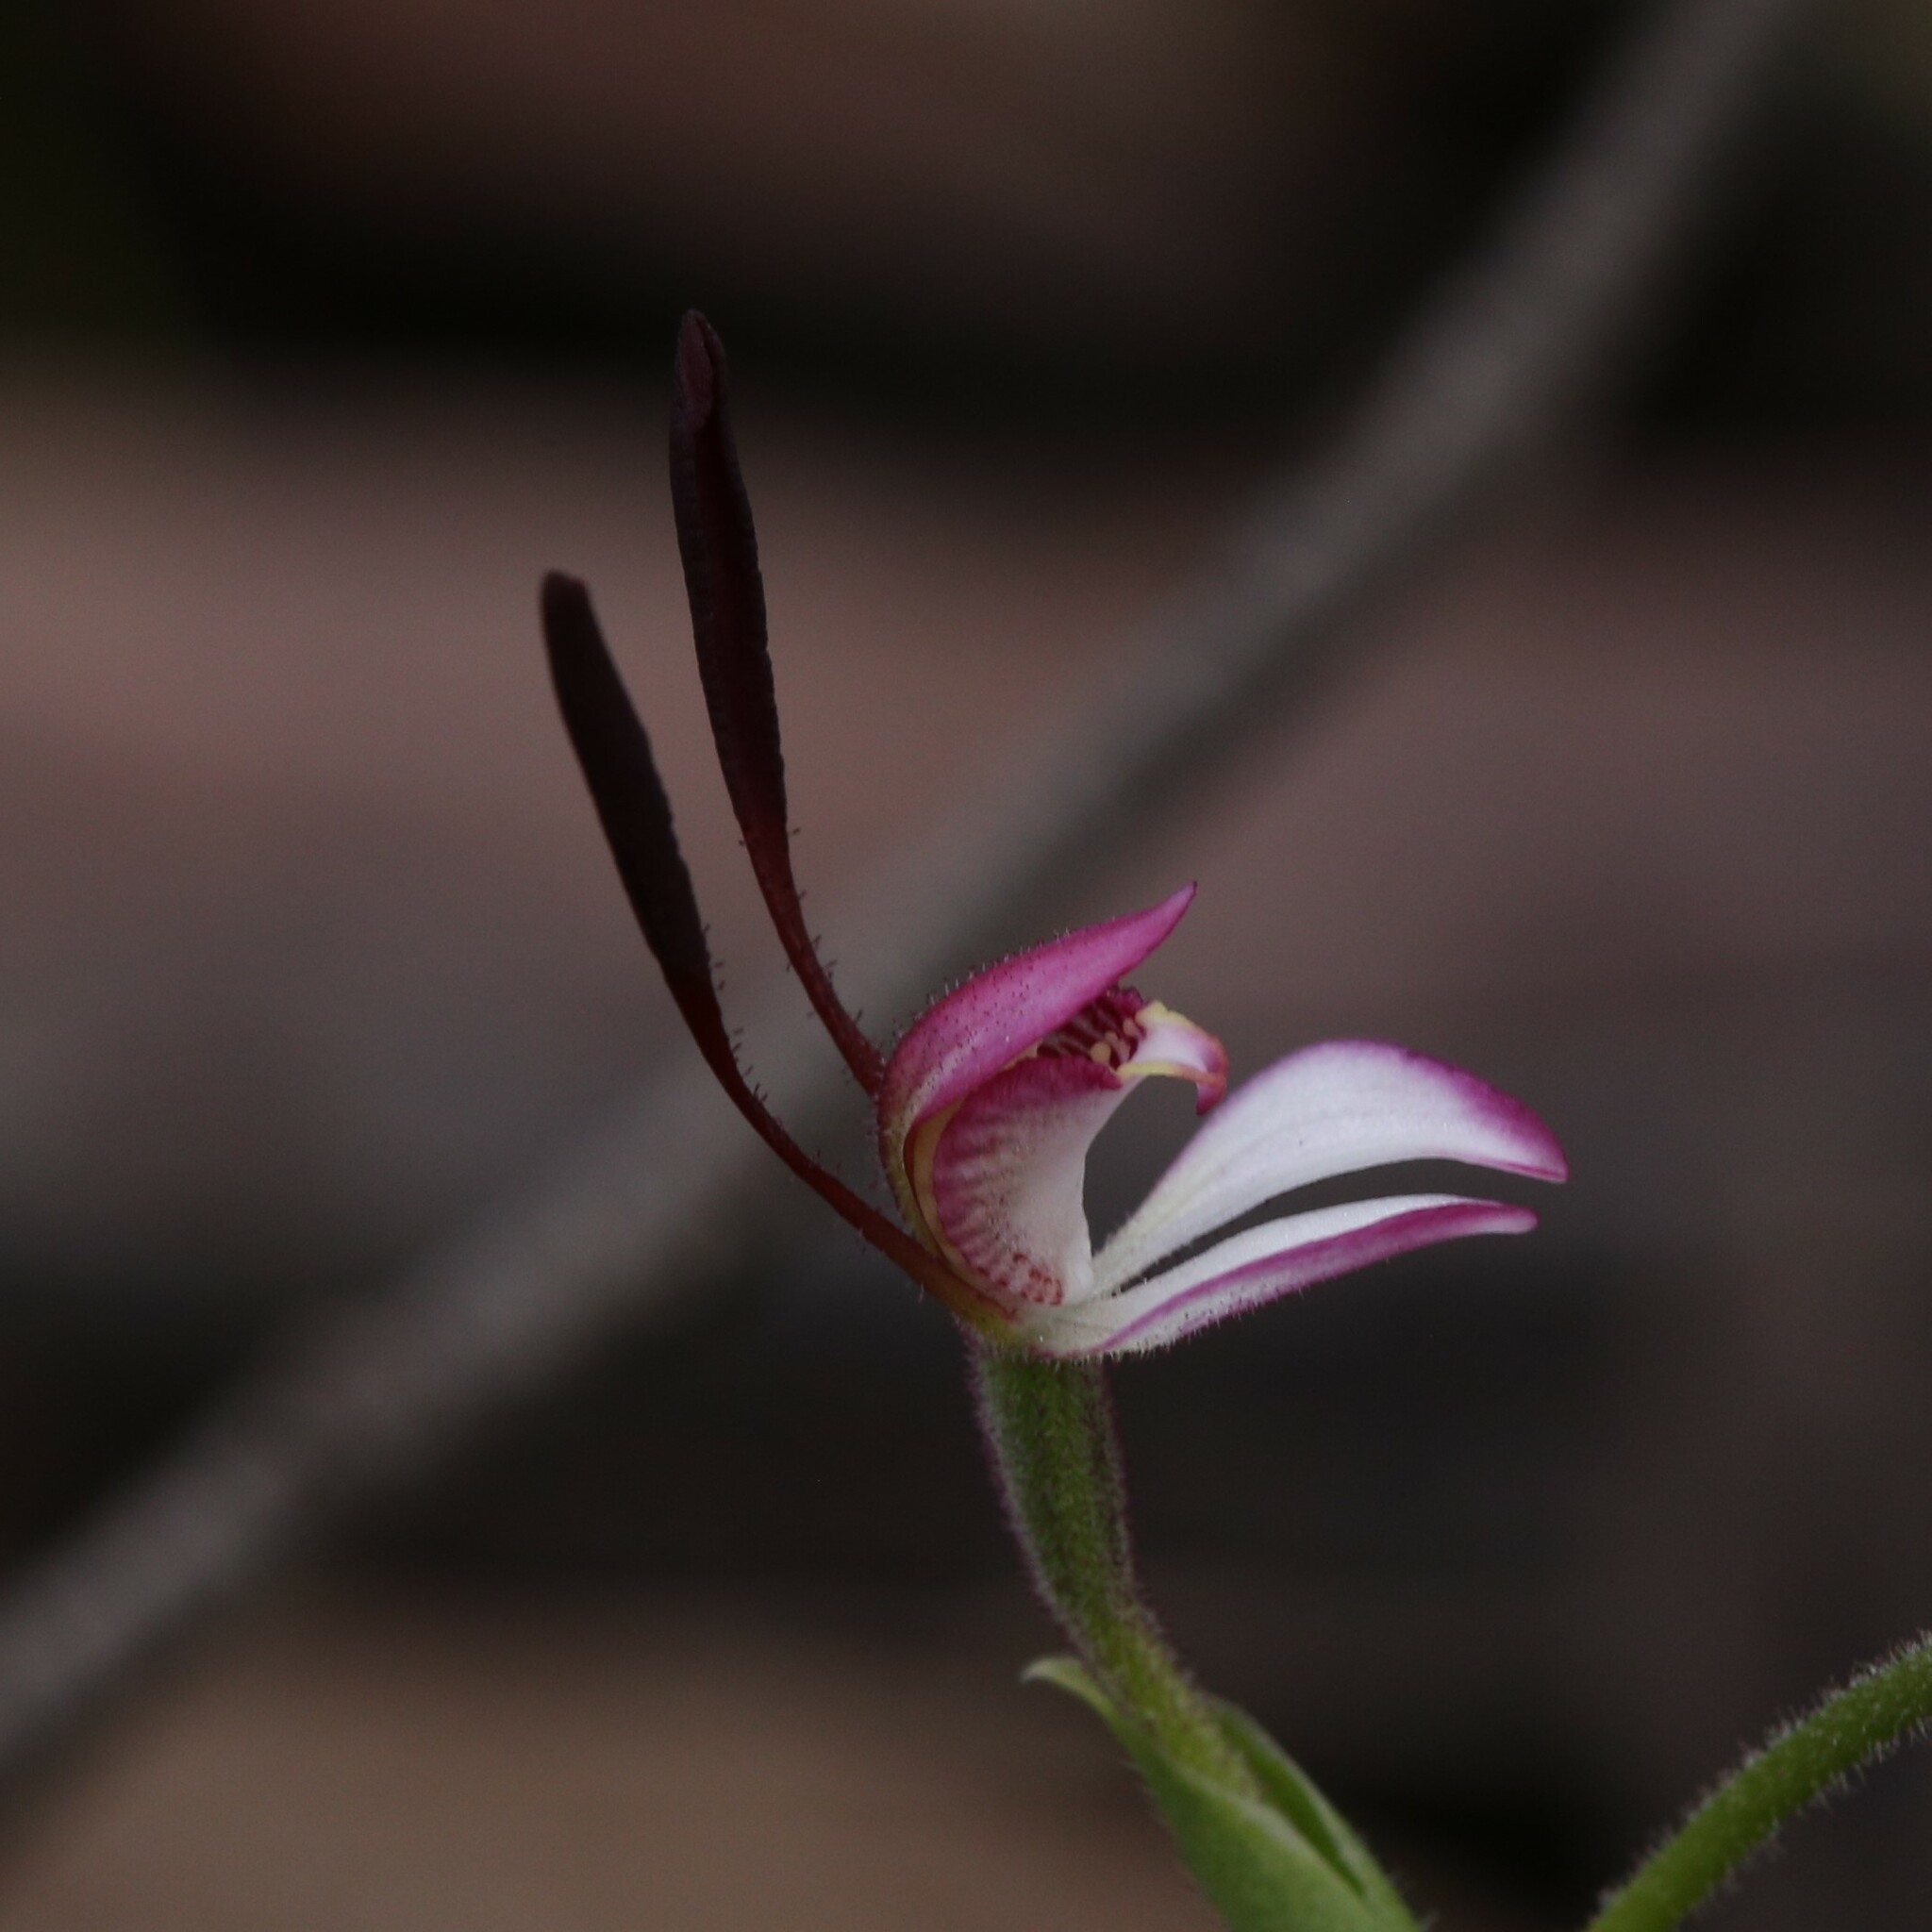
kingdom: Plantae
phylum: Tracheophyta
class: Liliopsida
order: Asparagales
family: Orchidaceae
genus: Leptoceras
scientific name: Leptoceras menziesii
